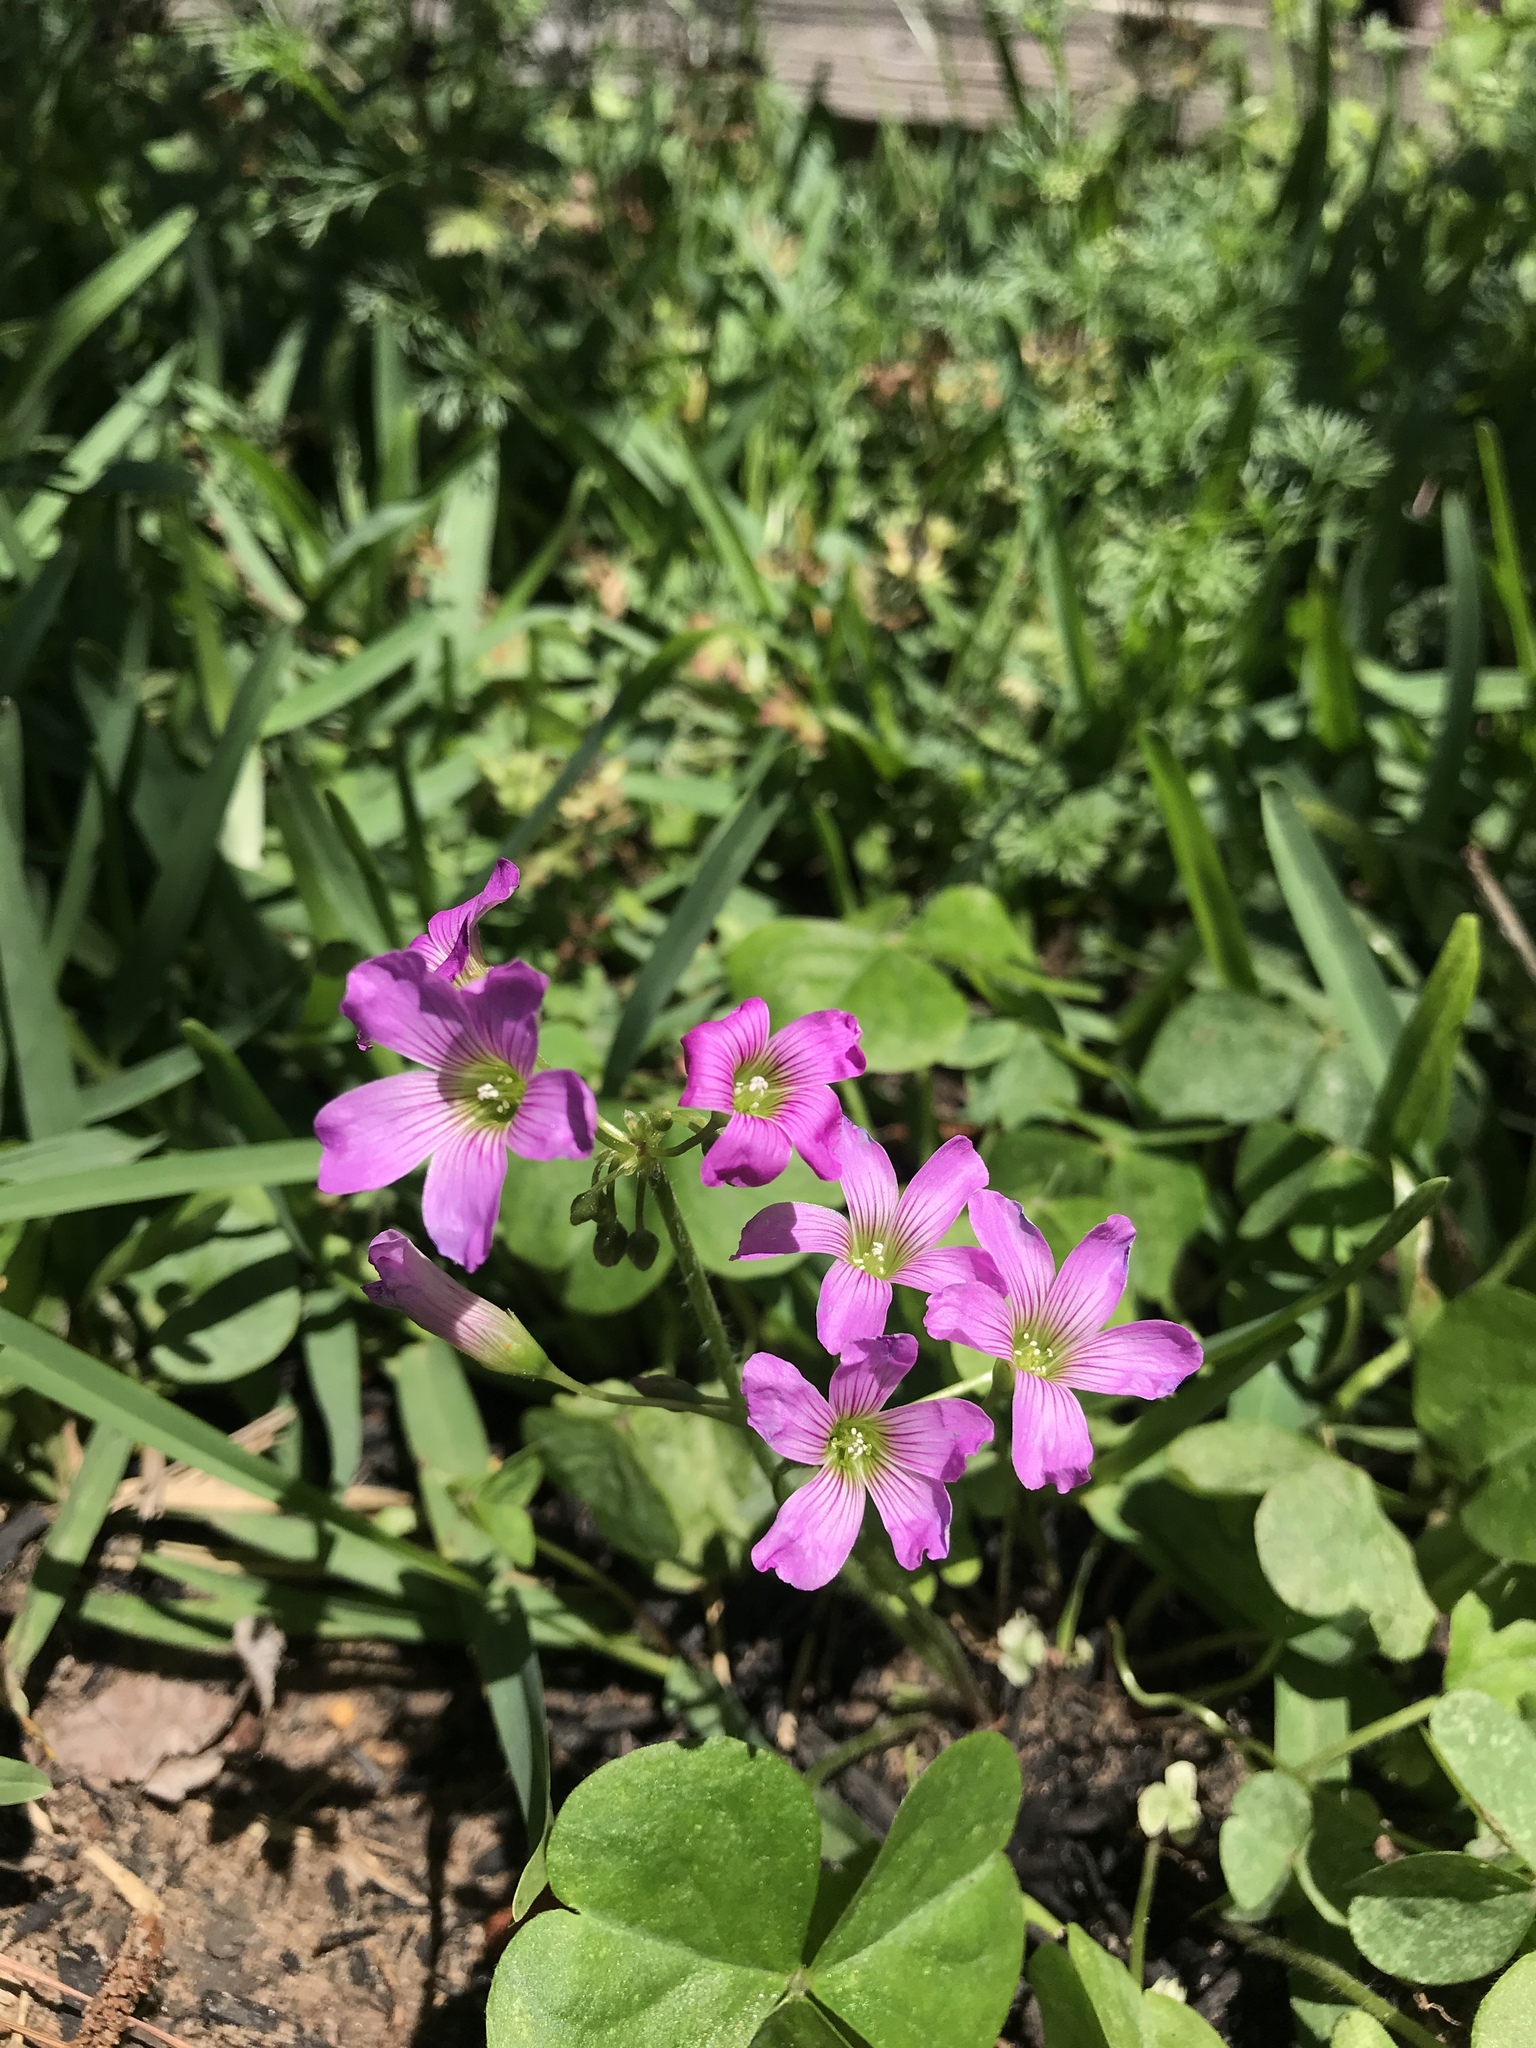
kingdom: Plantae
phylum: Tracheophyta
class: Magnoliopsida
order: Oxalidales
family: Oxalidaceae
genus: Oxalis
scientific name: Oxalis debilis
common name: Large-flowered pink-sorrel
